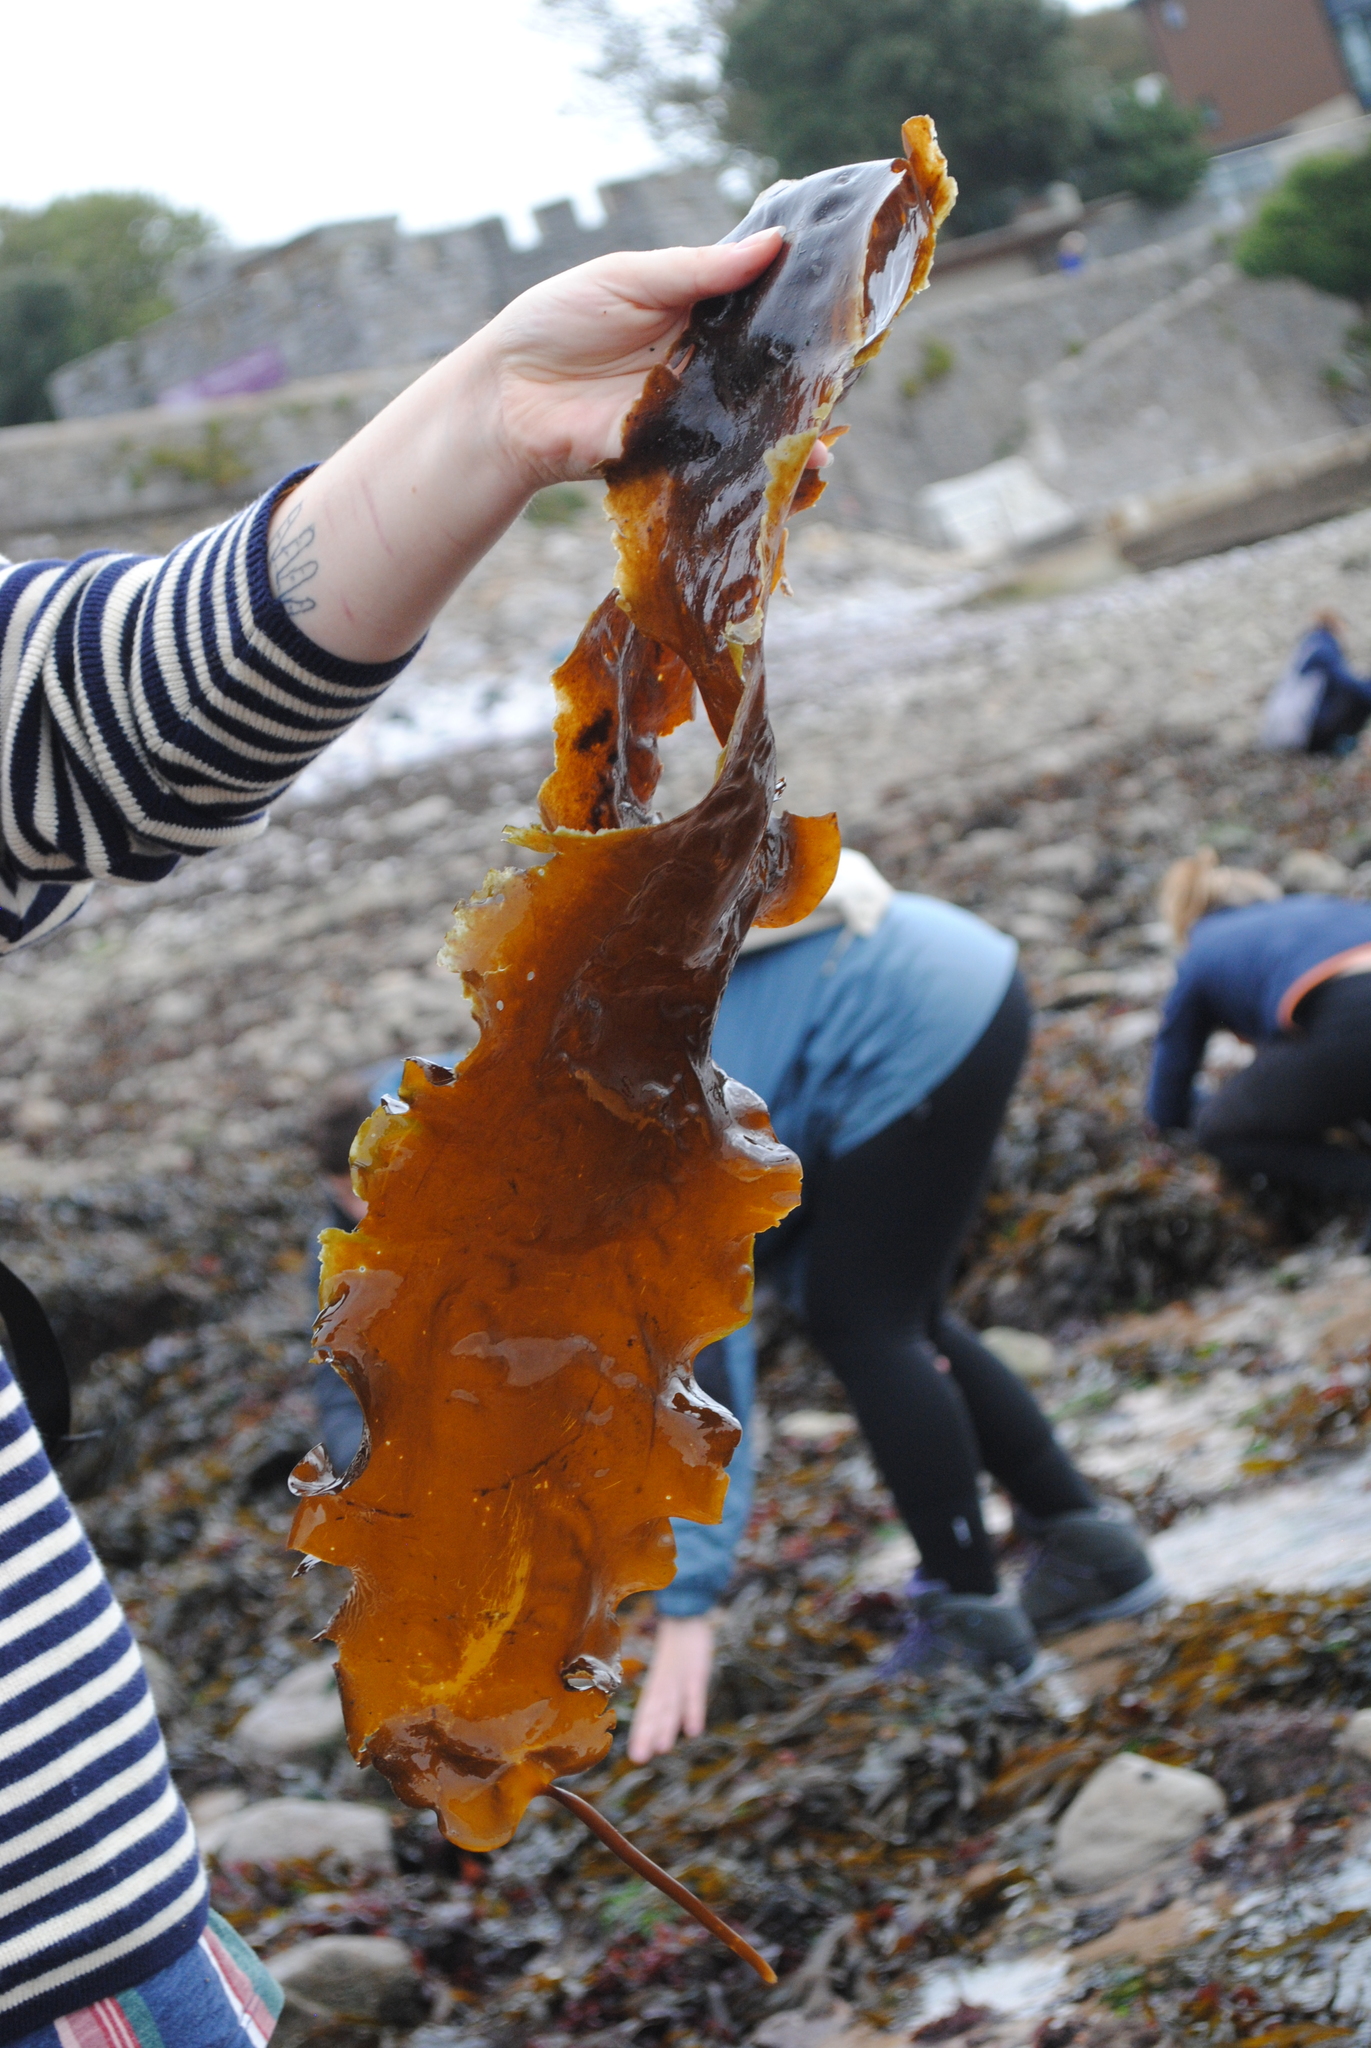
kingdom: Chromista
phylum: Ochrophyta
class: Phaeophyceae
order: Laminariales
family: Laminariaceae
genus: Saccharina
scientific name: Saccharina latissima
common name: Poor man's weather glass
